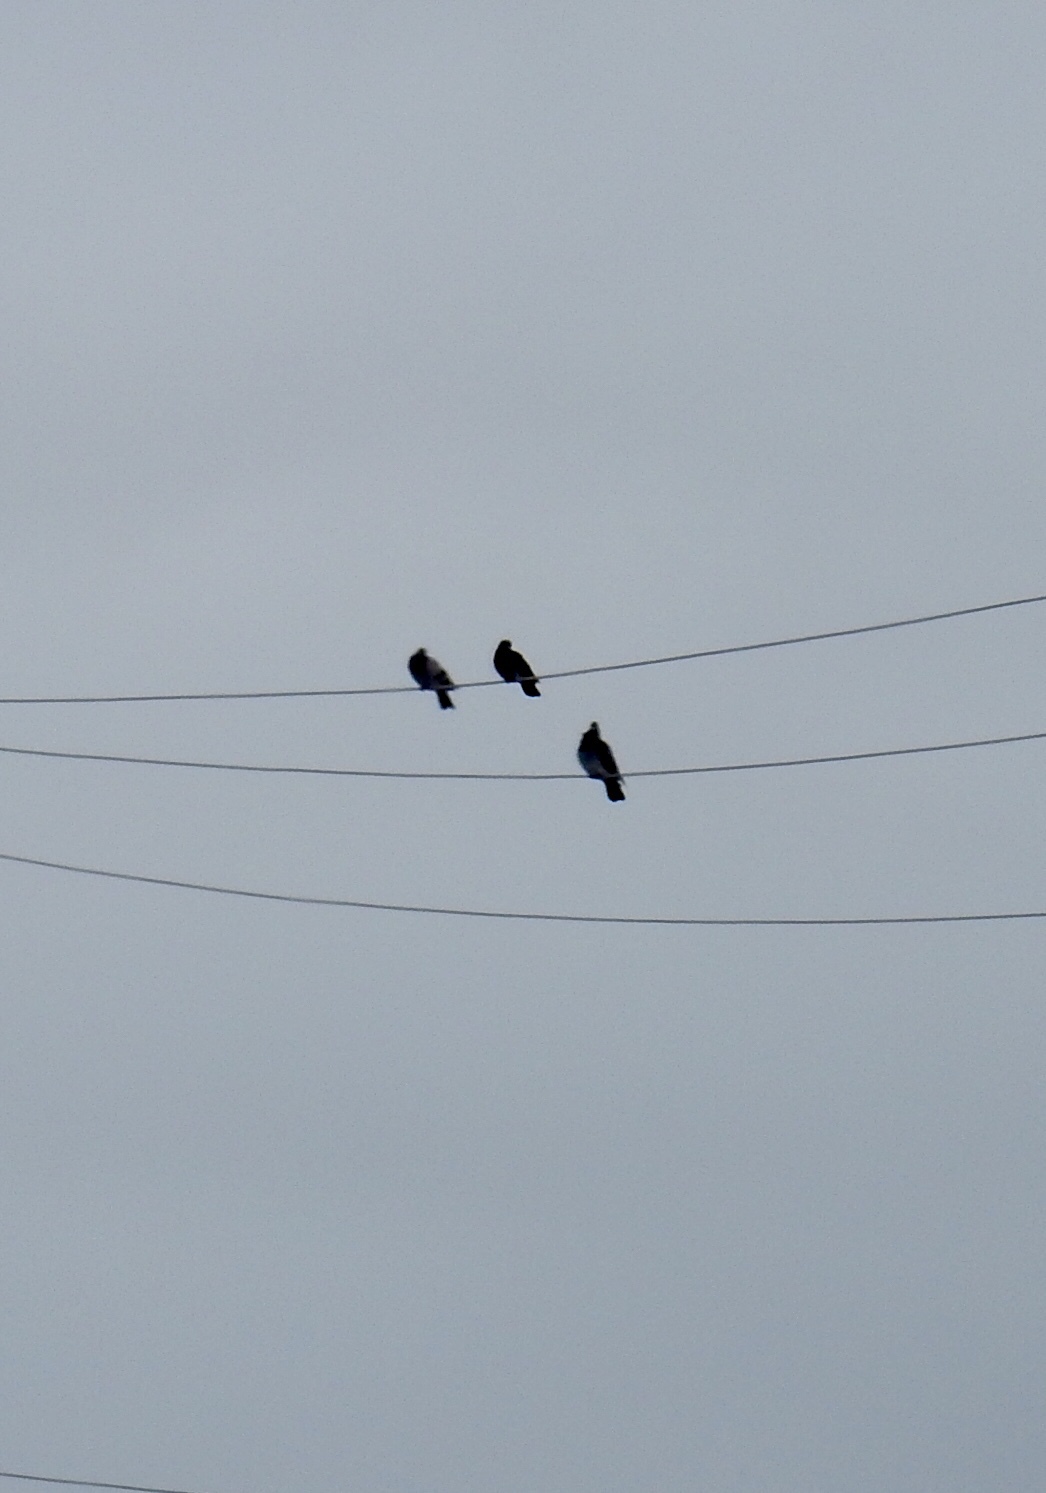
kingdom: Animalia
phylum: Chordata
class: Aves
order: Columbiformes
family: Columbidae
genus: Columba
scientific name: Columba livia
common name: Rock pigeon
